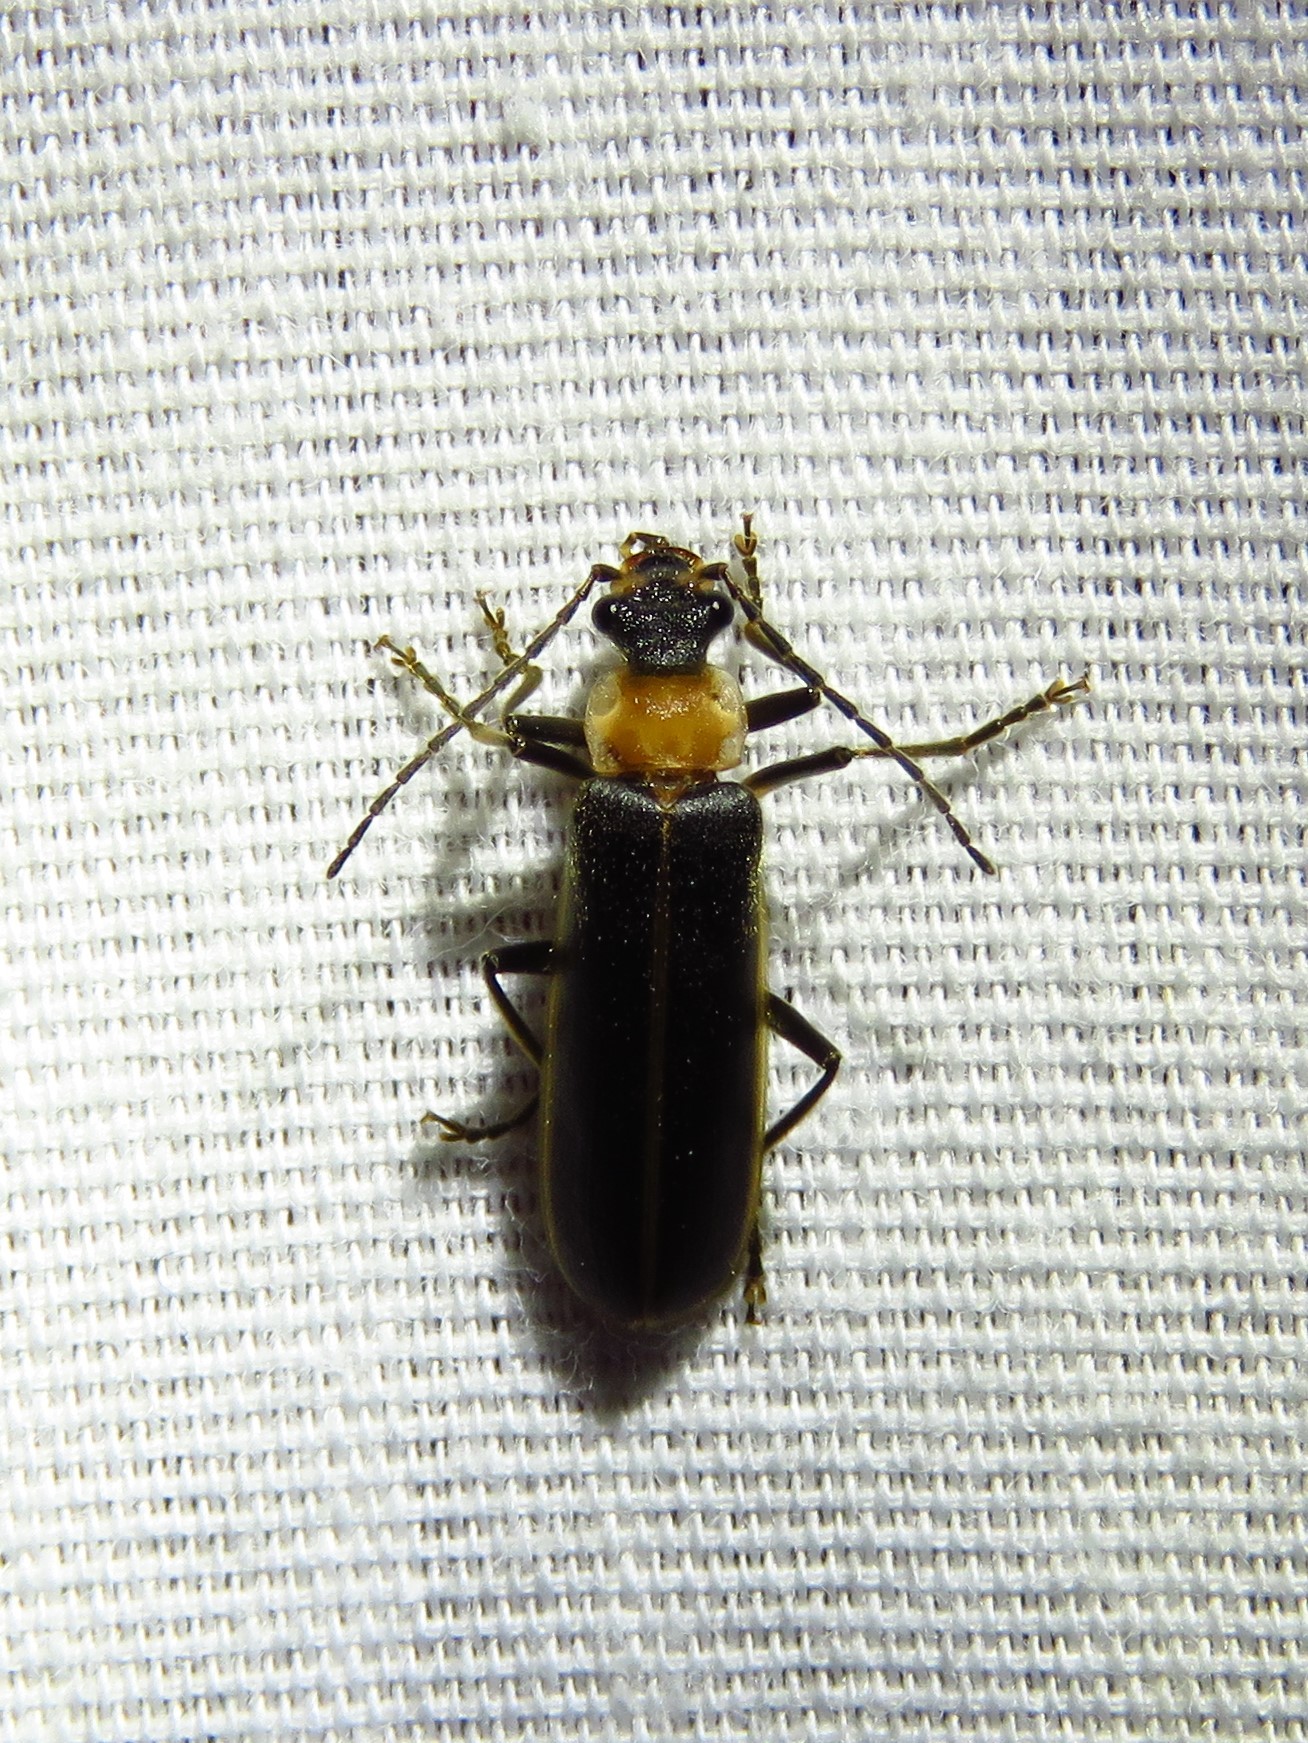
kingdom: Animalia
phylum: Arthropoda
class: Insecta
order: Coleoptera
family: Cantharidae
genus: Podabrus
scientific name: Podabrus flavicollis
